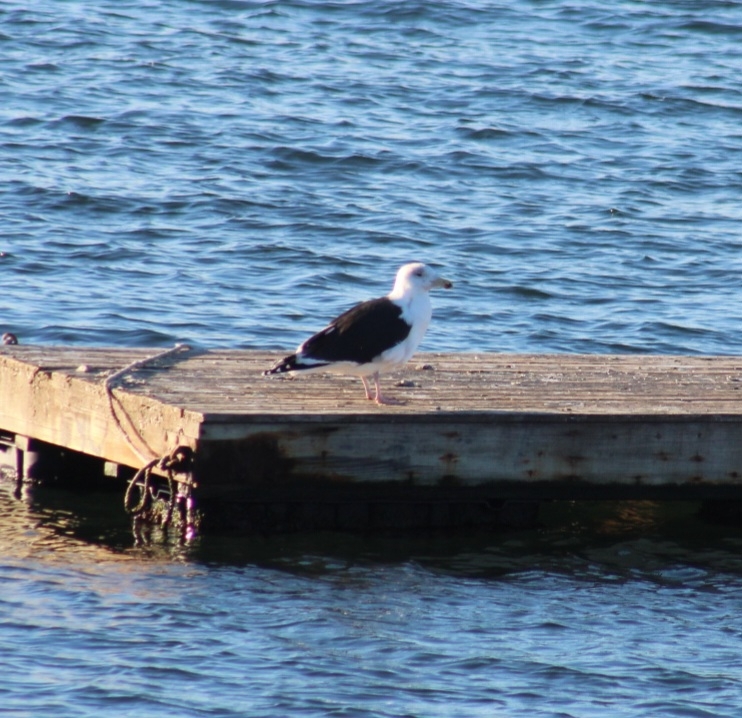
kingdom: Animalia
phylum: Chordata
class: Aves
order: Charadriiformes
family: Laridae
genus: Larus
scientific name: Larus marinus
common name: Great black-backed gull
